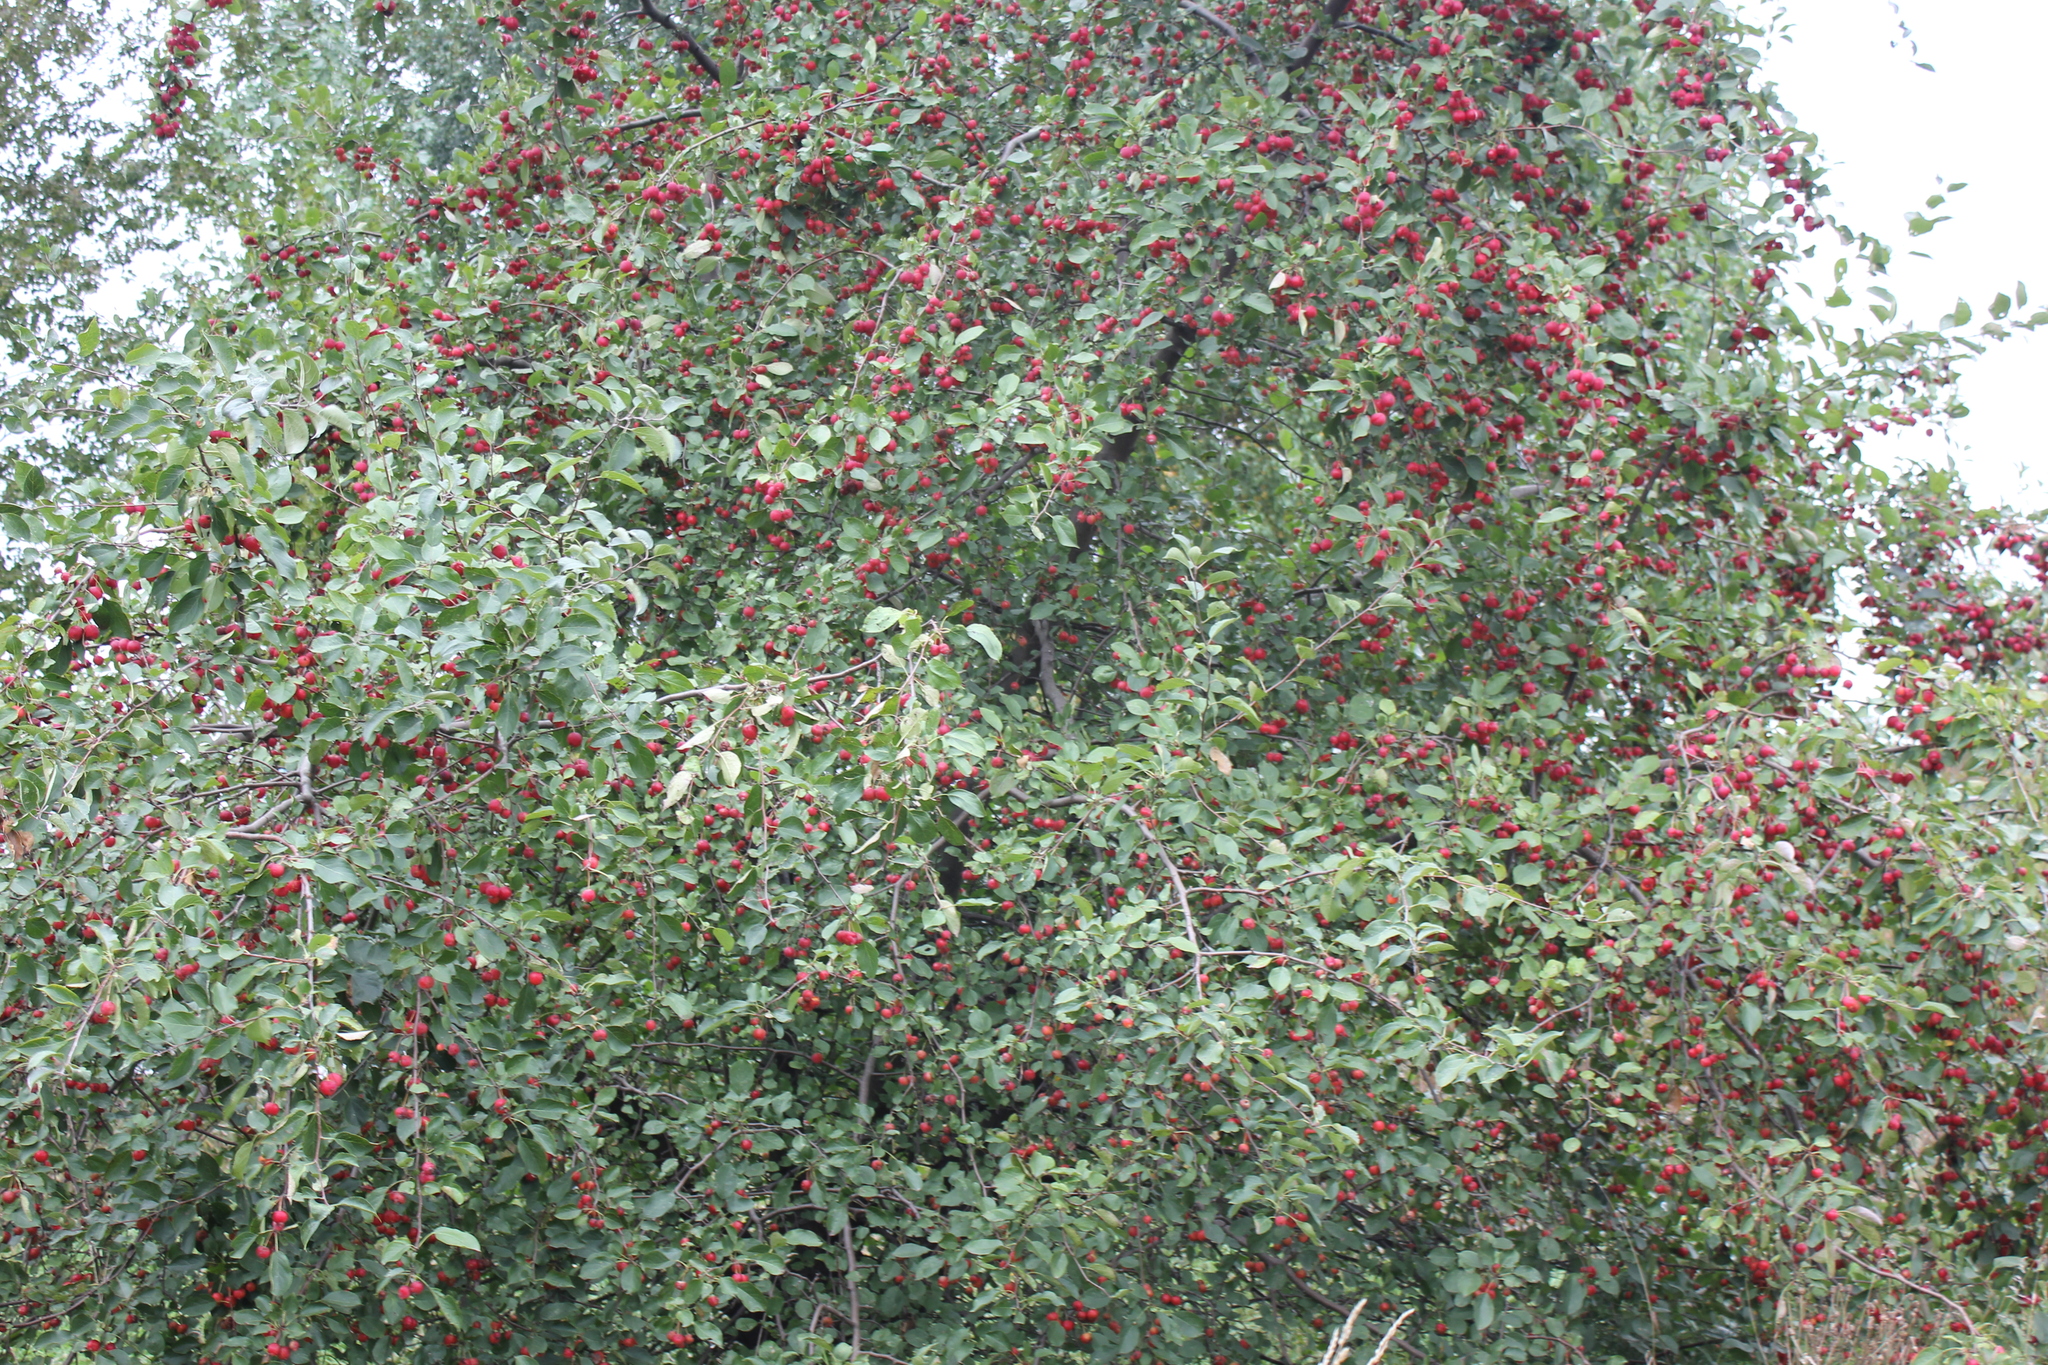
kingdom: Plantae
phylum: Tracheophyta
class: Magnoliopsida
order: Rosales
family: Rosaceae
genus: Malus
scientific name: Malus baccata
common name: Siberian crab
